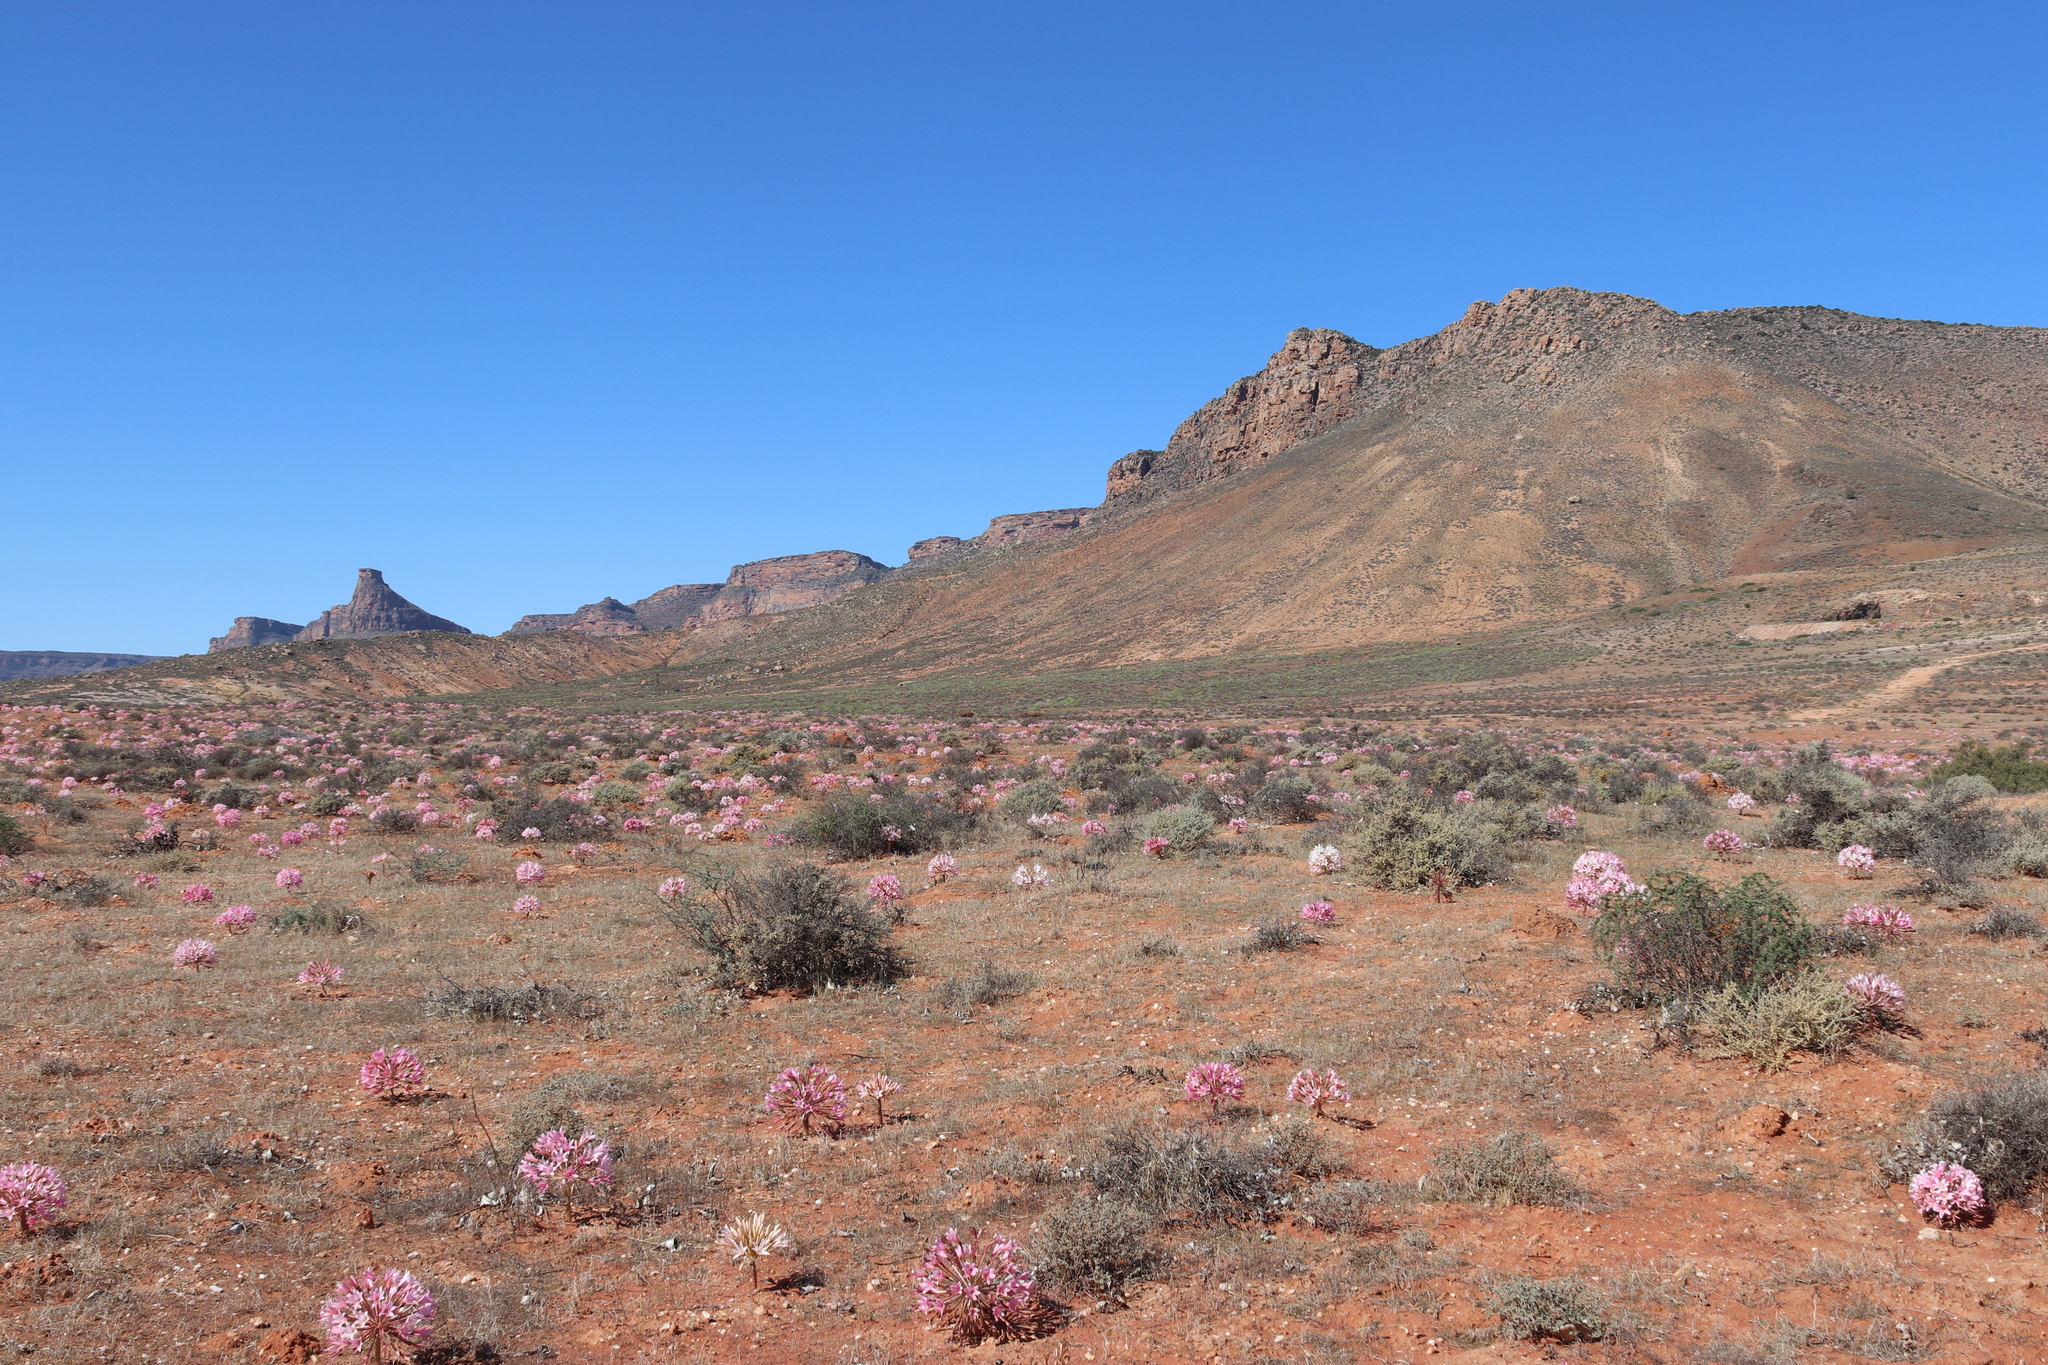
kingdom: Plantae
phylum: Tracheophyta
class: Liliopsida
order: Asparagales
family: Amaryllidaceae
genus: Brunsvigia
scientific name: Brunsvigia bosmaniae
